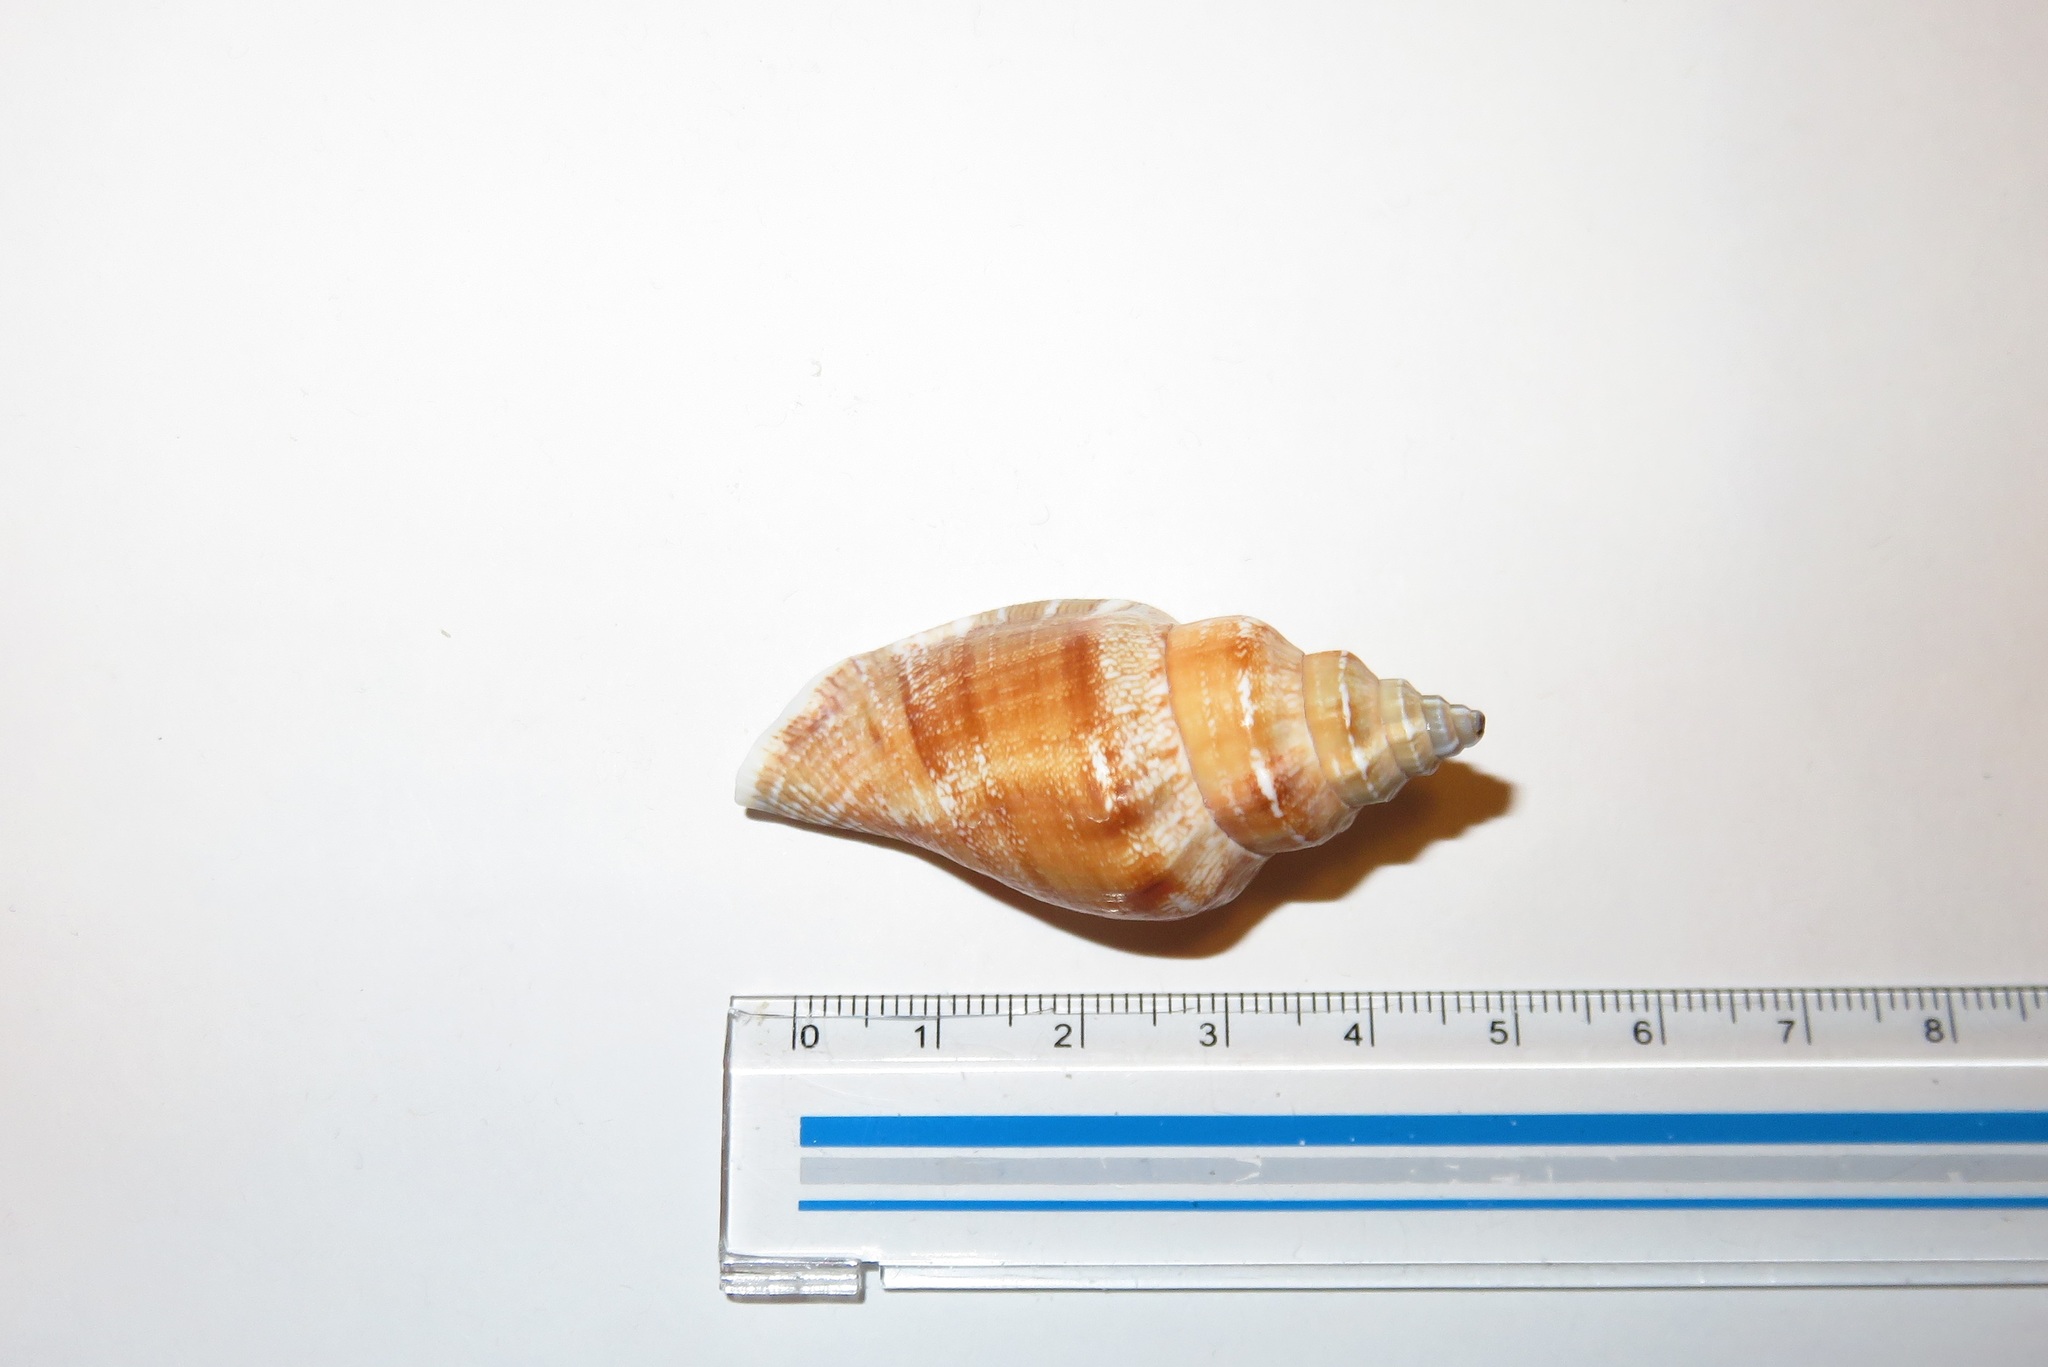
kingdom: Animalia
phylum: Mollusca
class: Gastropoda
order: Littorinimorpha
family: Strombidae
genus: Canarium
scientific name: Canarium urceus
